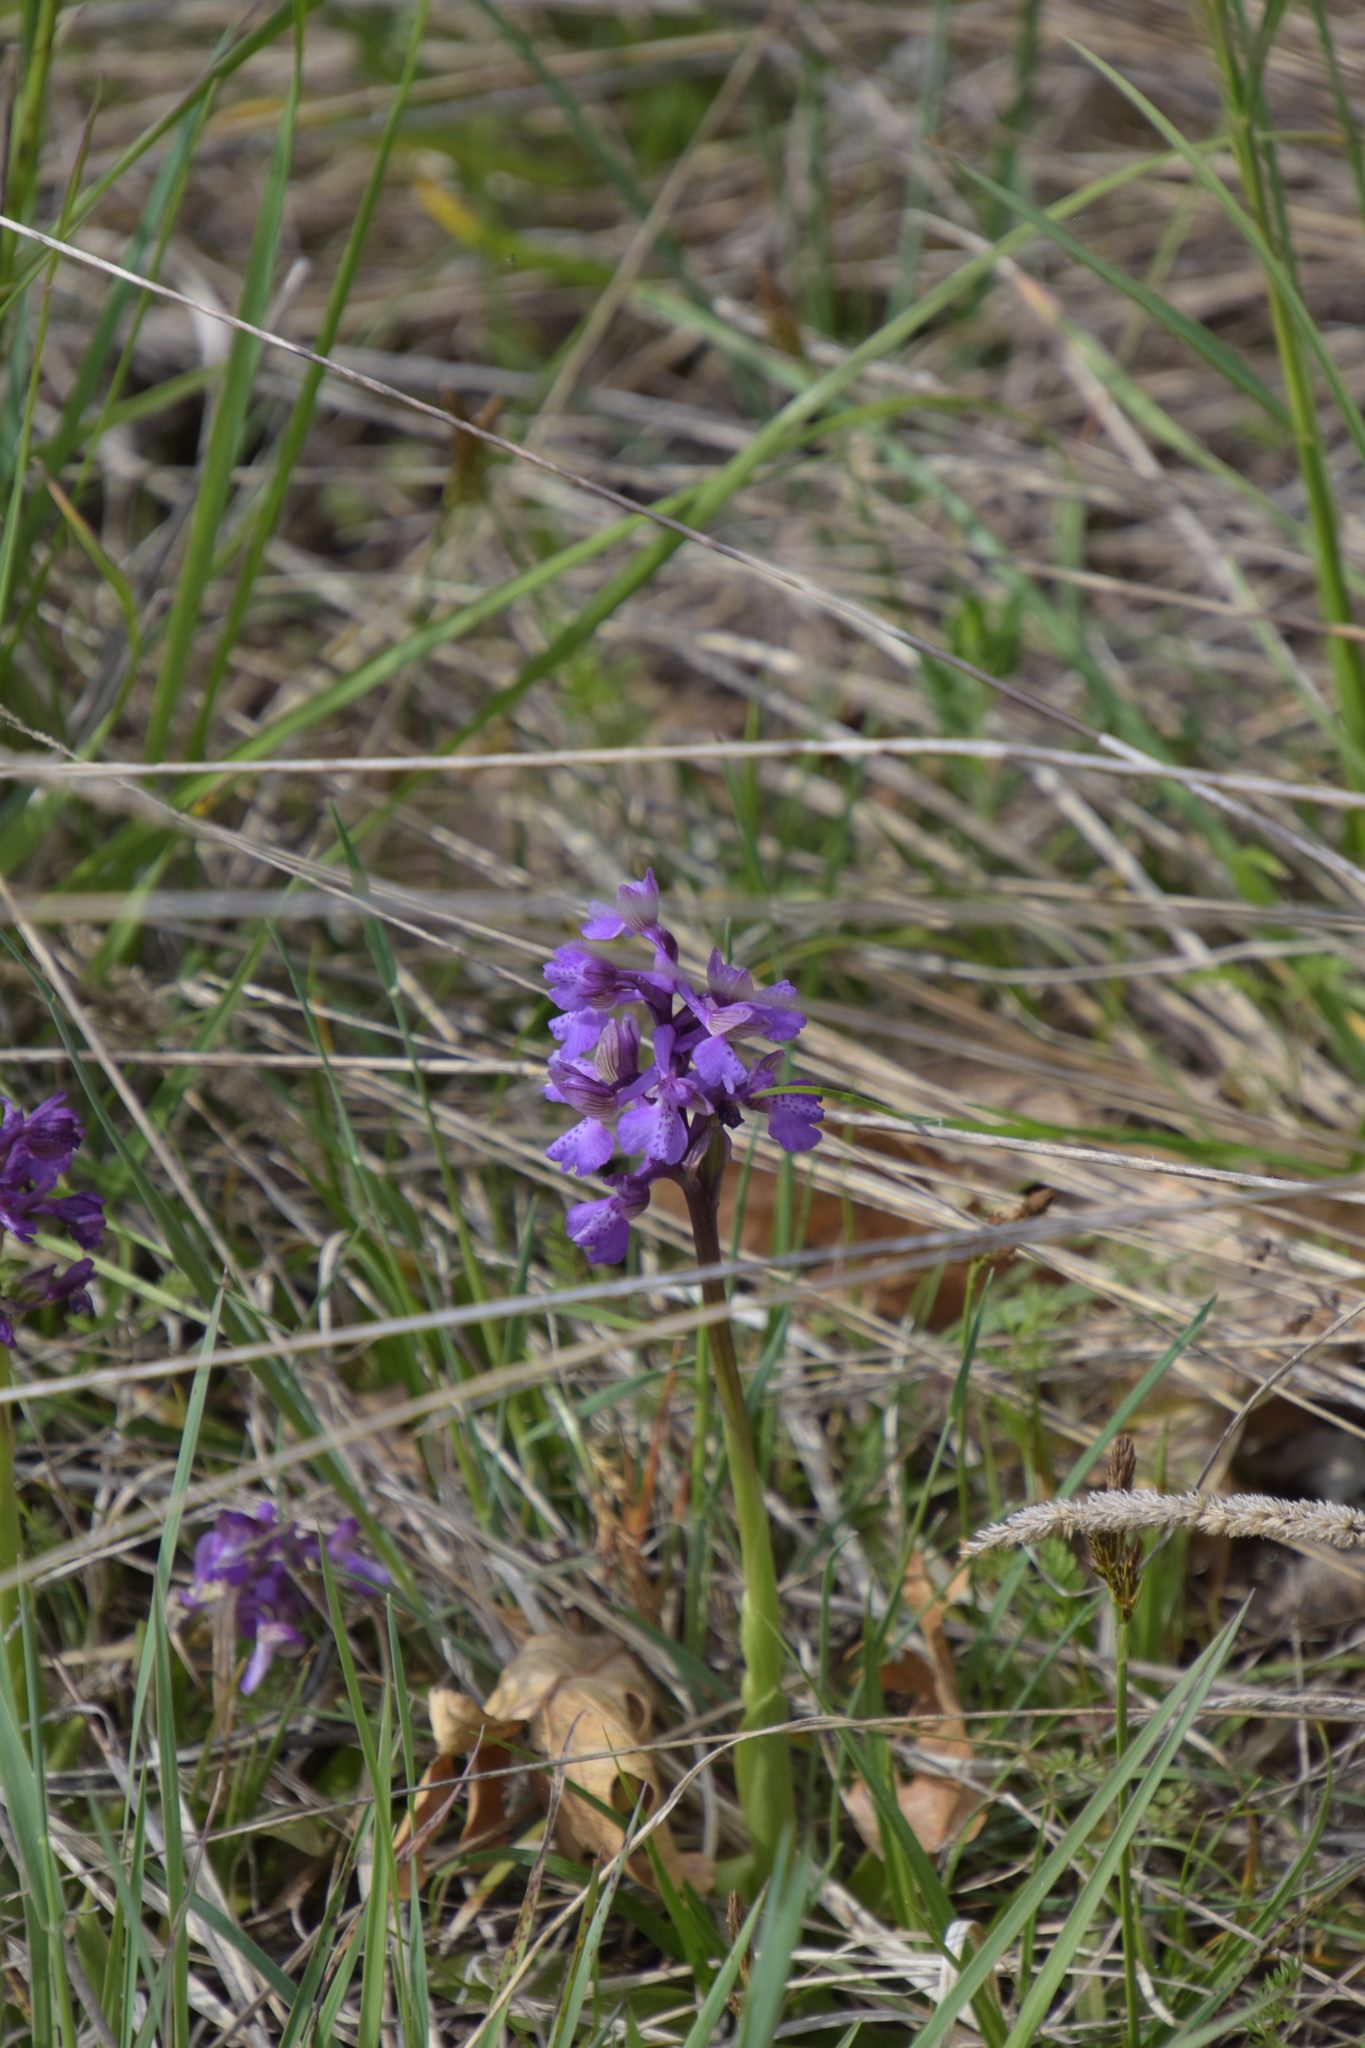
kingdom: Plantae
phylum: Tracheophyta
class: Liliopsida
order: Asparagales
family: Orchidaceae
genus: Anacamptis
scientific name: Anacamptis morio
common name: Green-winged orchid
